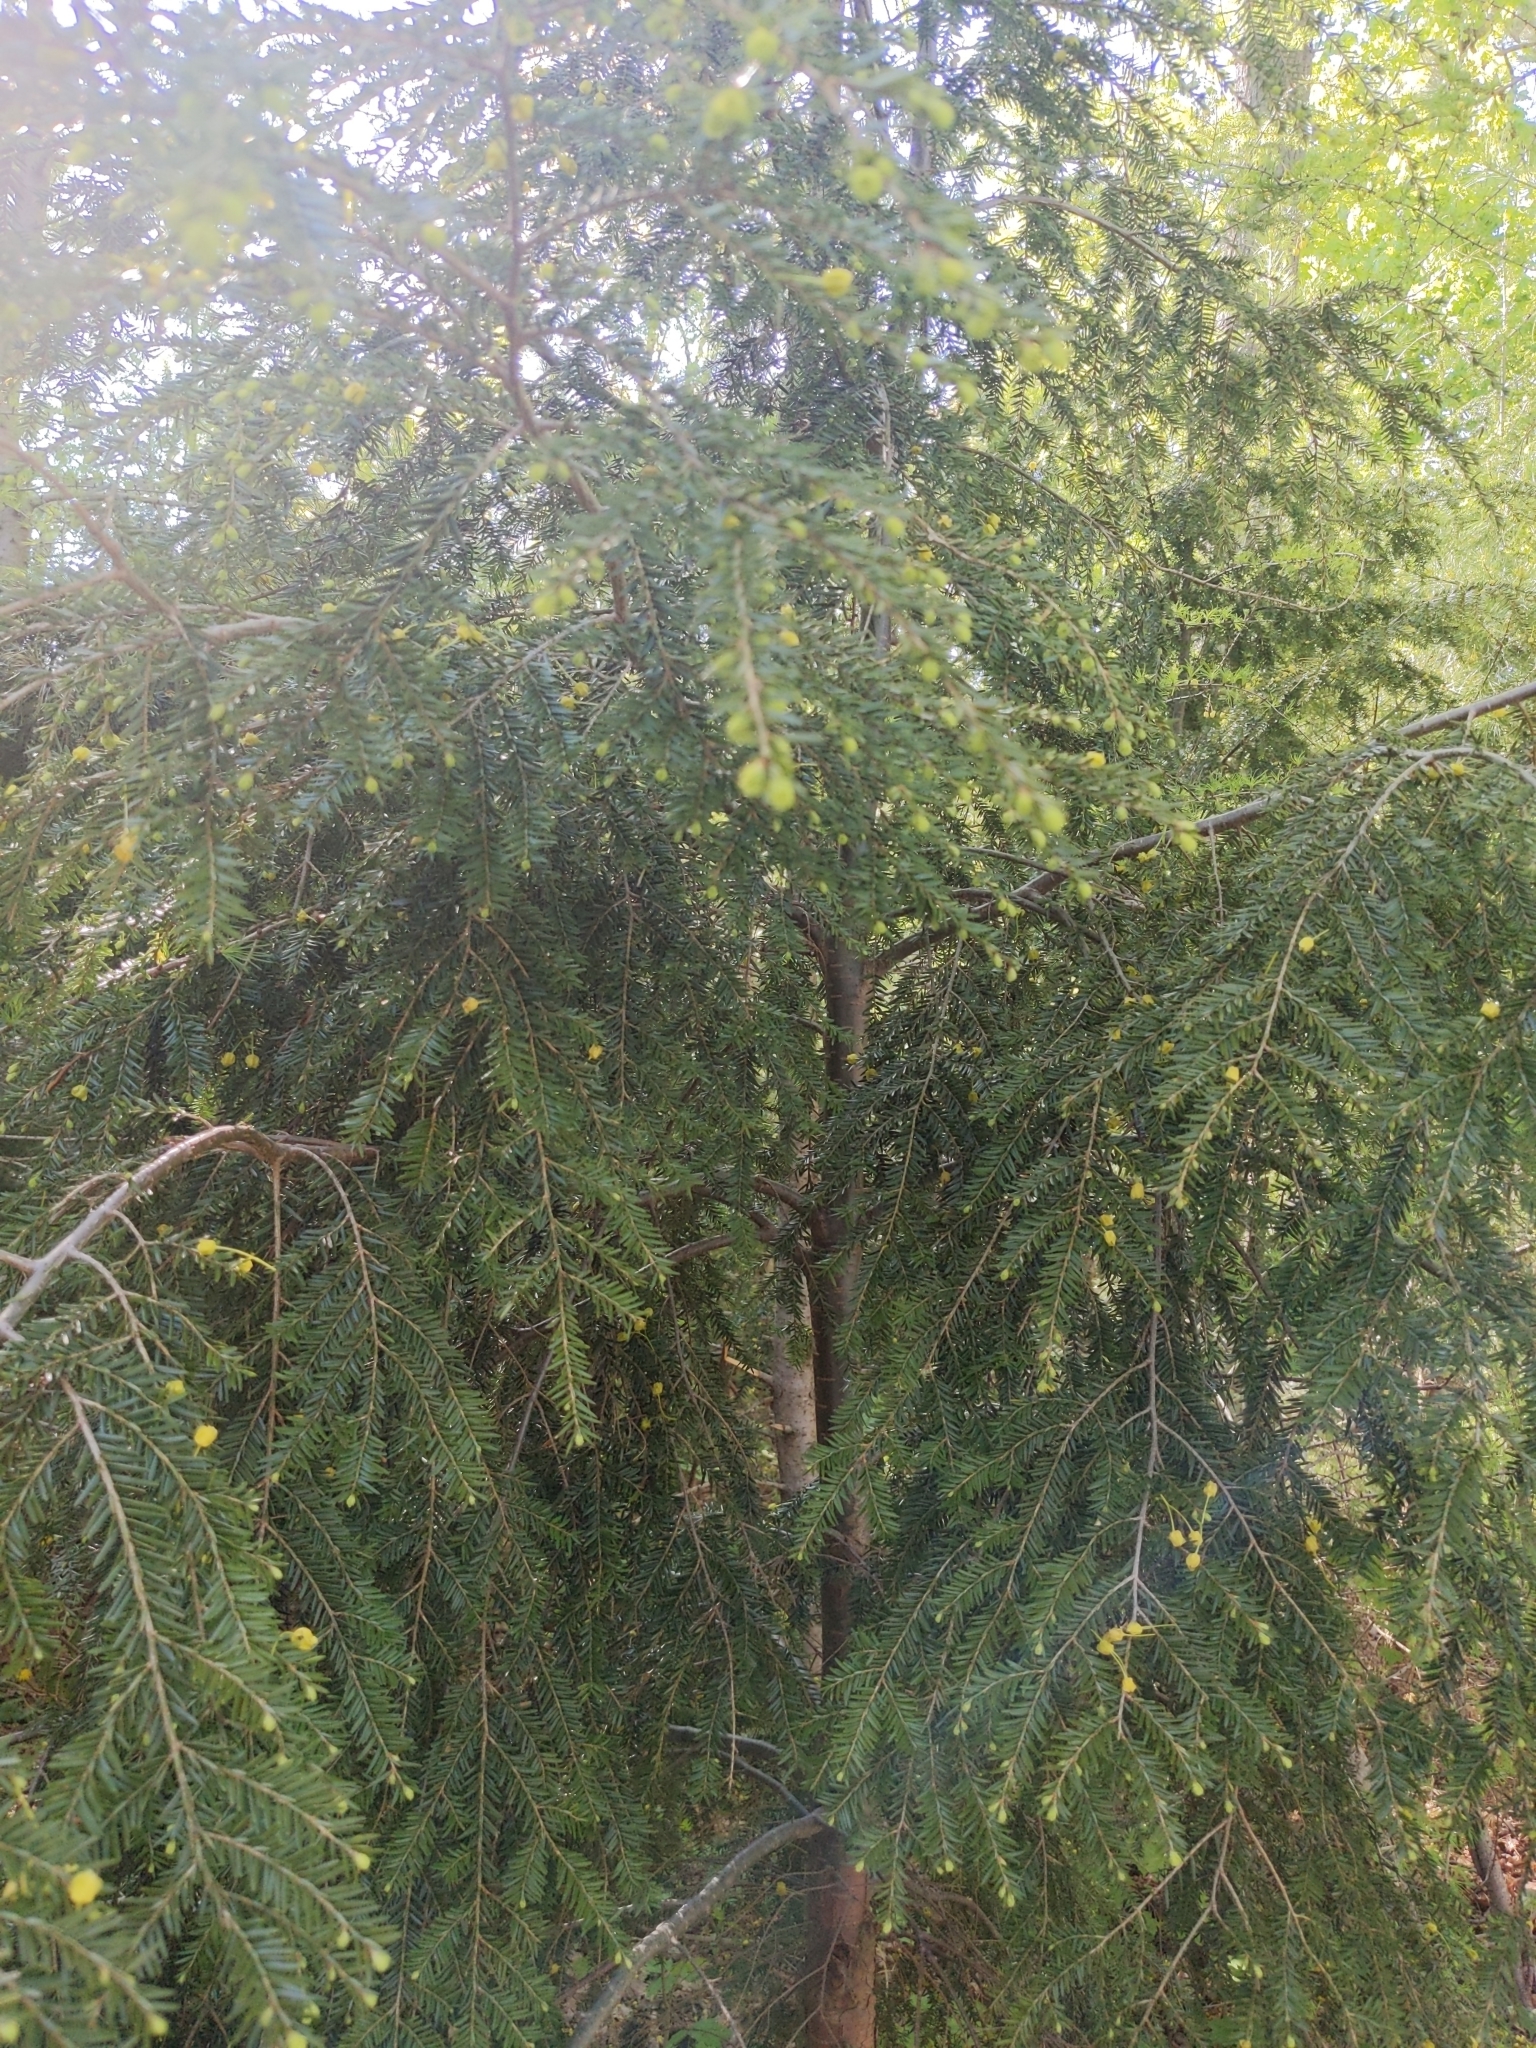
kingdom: Plantae
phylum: Tracheophyta
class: Pinopsida
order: Pinales
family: Pinaceae
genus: Tsuga
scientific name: Tsuga canadensis
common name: Eastern hemlock
